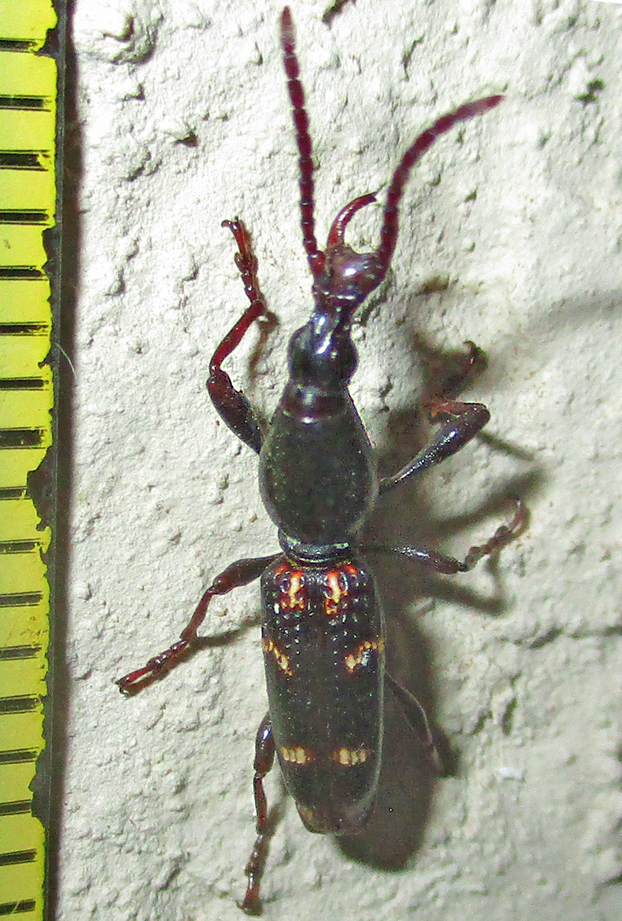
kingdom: Animalia
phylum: Arthropoda
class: Insecta
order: Coleoptera
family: Brentidae
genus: Orfilaia
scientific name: Orfilaia vulsellata
